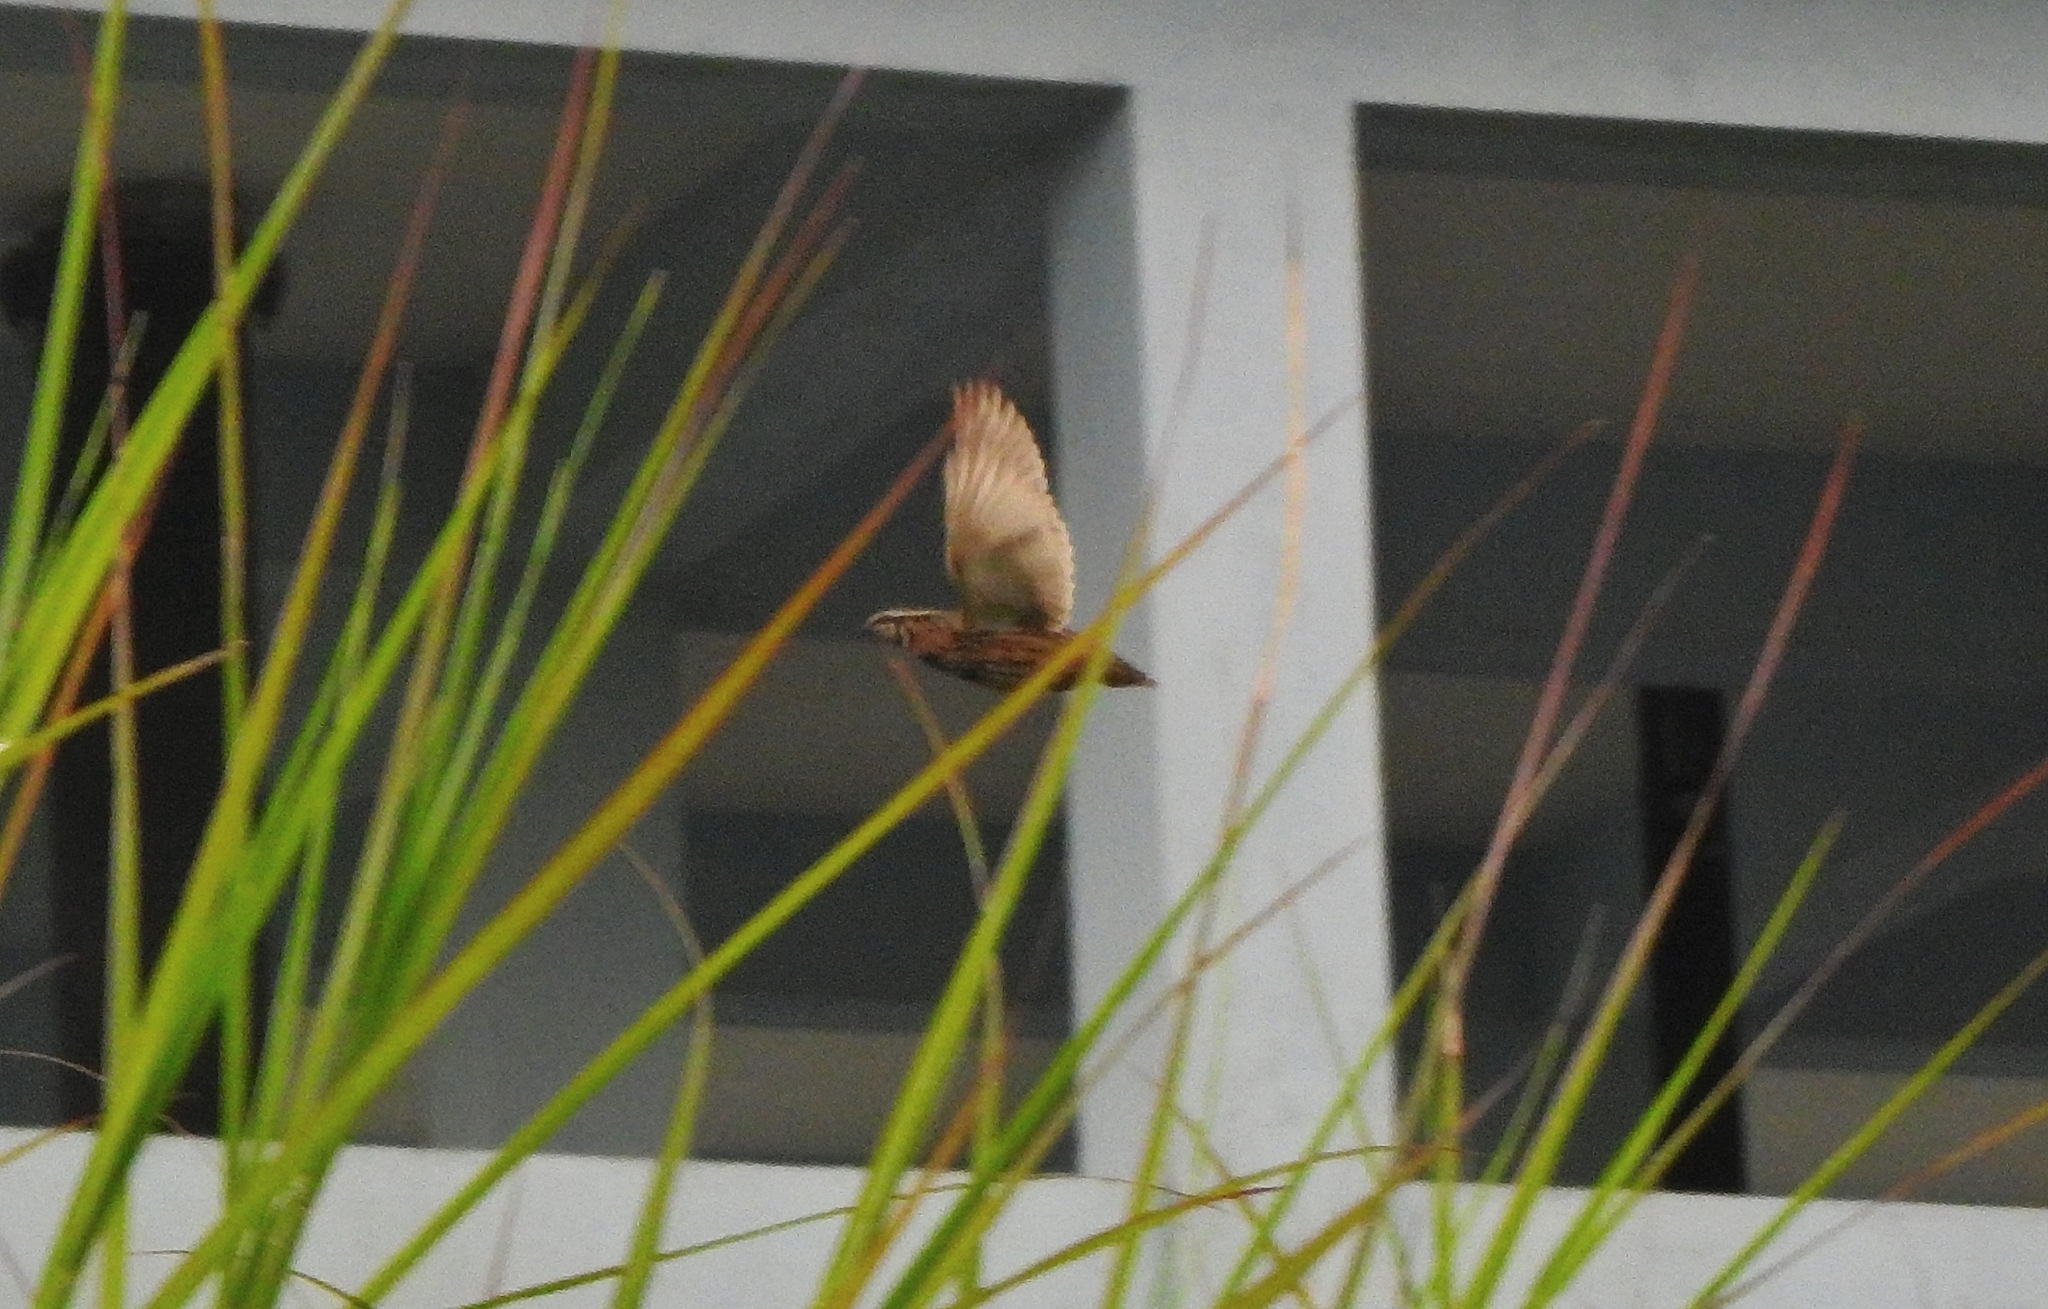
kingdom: Animalia
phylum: Chordata
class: Aves
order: Galliformes
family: Phasianidae
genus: Coturnix
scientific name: Coturnix coromandelica
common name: Rain quail
